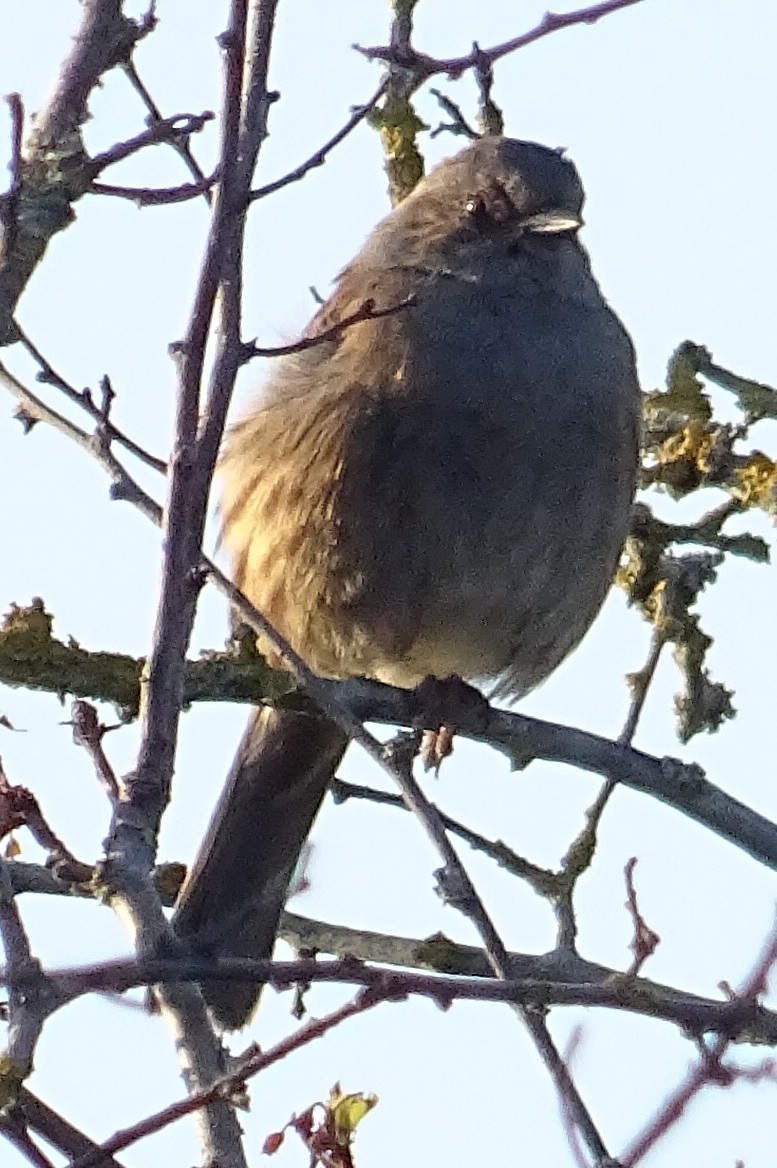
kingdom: Animalia
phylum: Chordata
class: Aves
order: Passeriformes
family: Prunellidae
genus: Prunella
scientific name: Prunella modularis
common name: Dunnock
